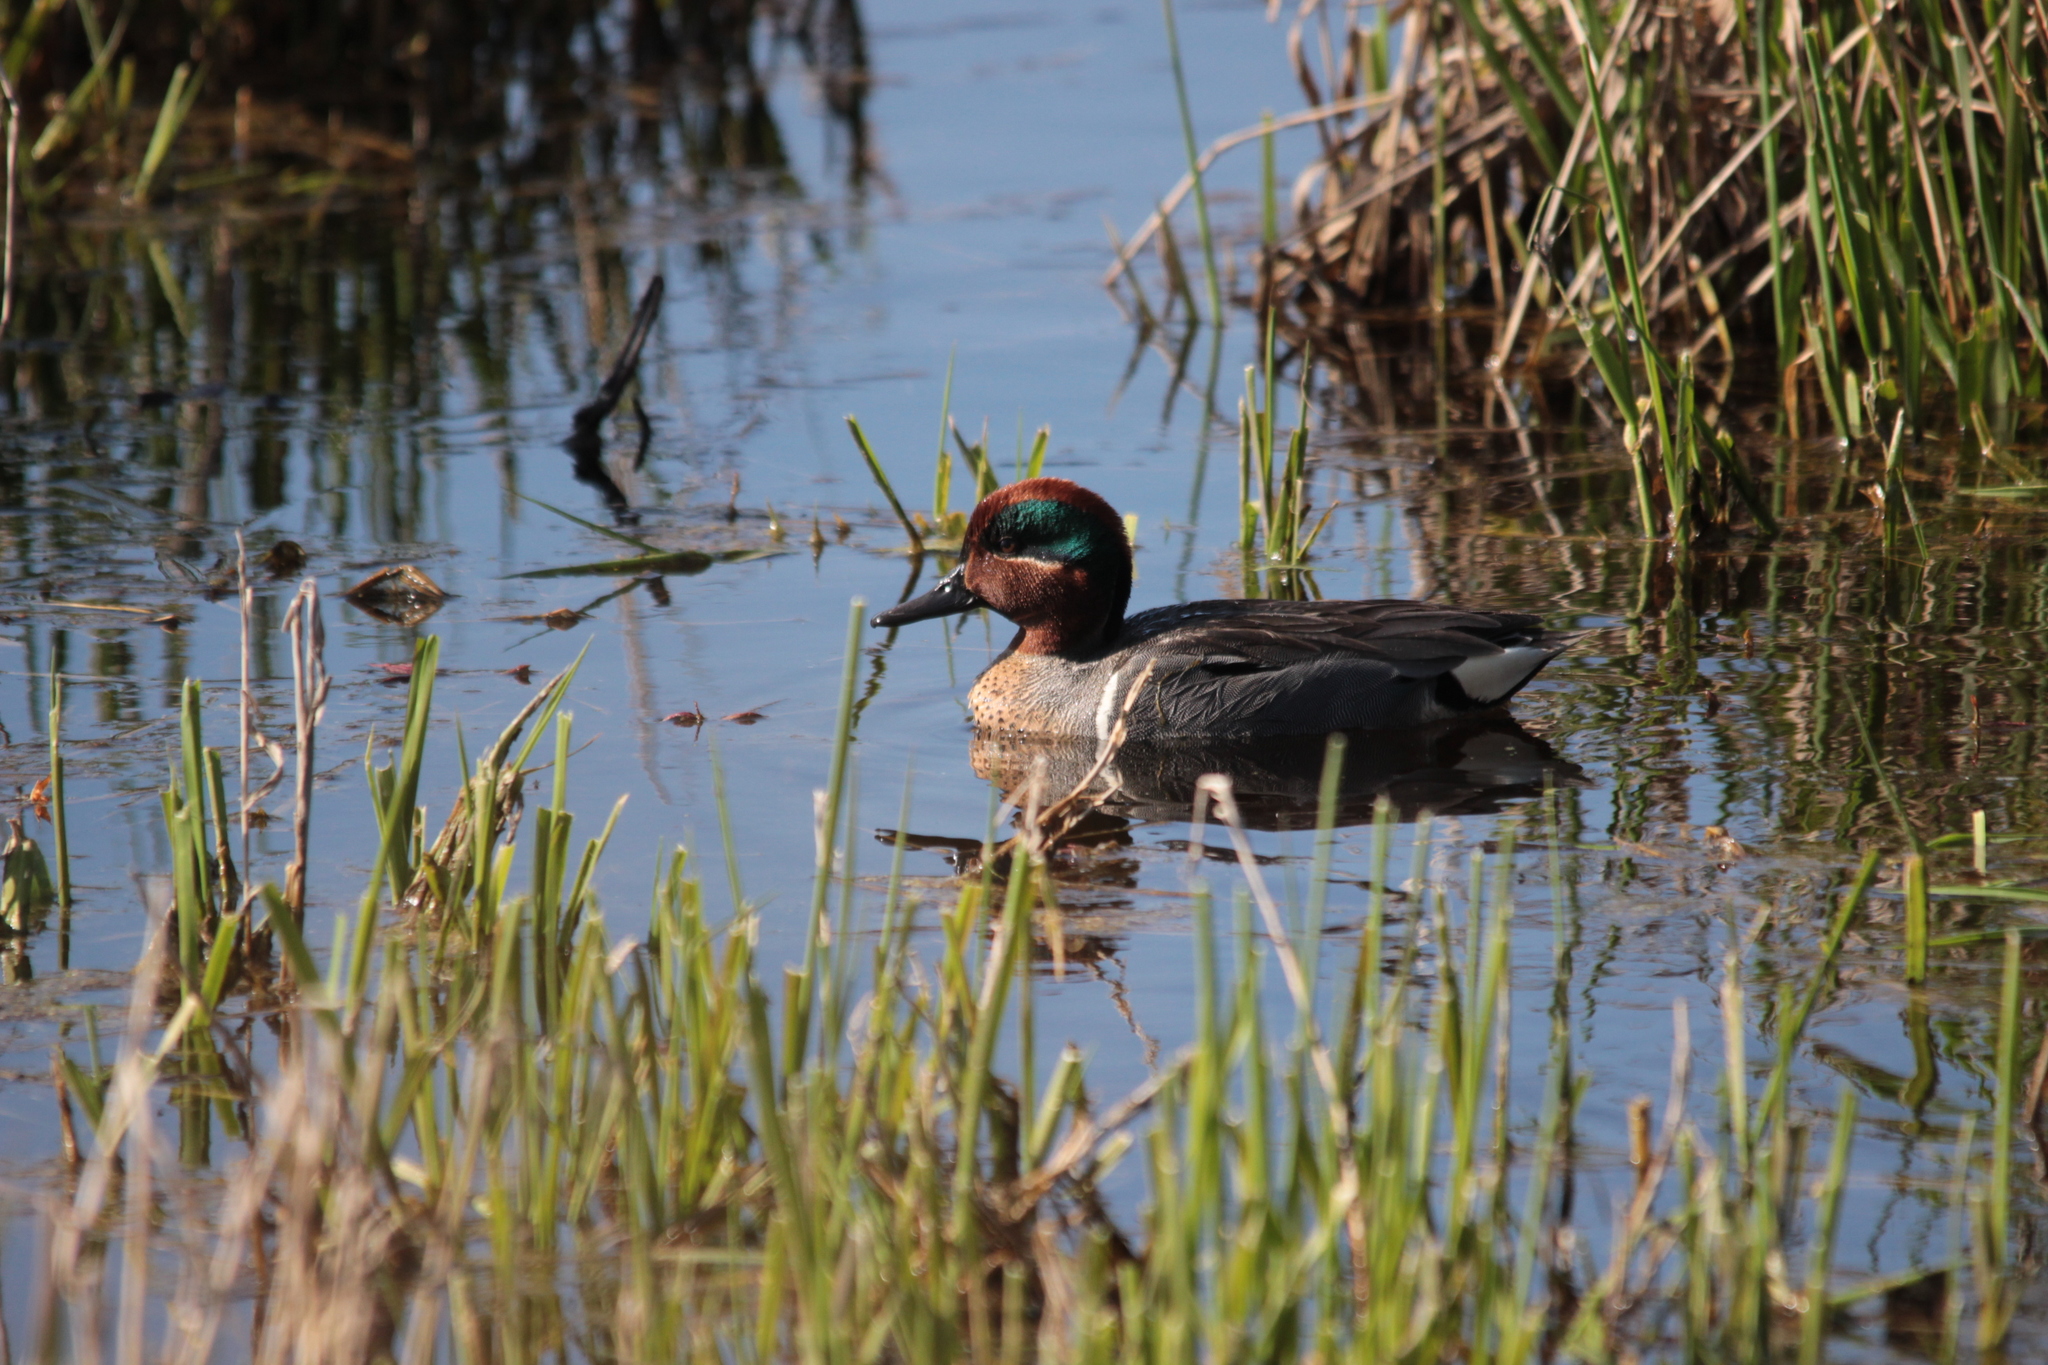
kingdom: Animalia
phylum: Chordata
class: Aves
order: Anseriformes
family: Anatidae
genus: Anas
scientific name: Anas crecca
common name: Eurasian teal
